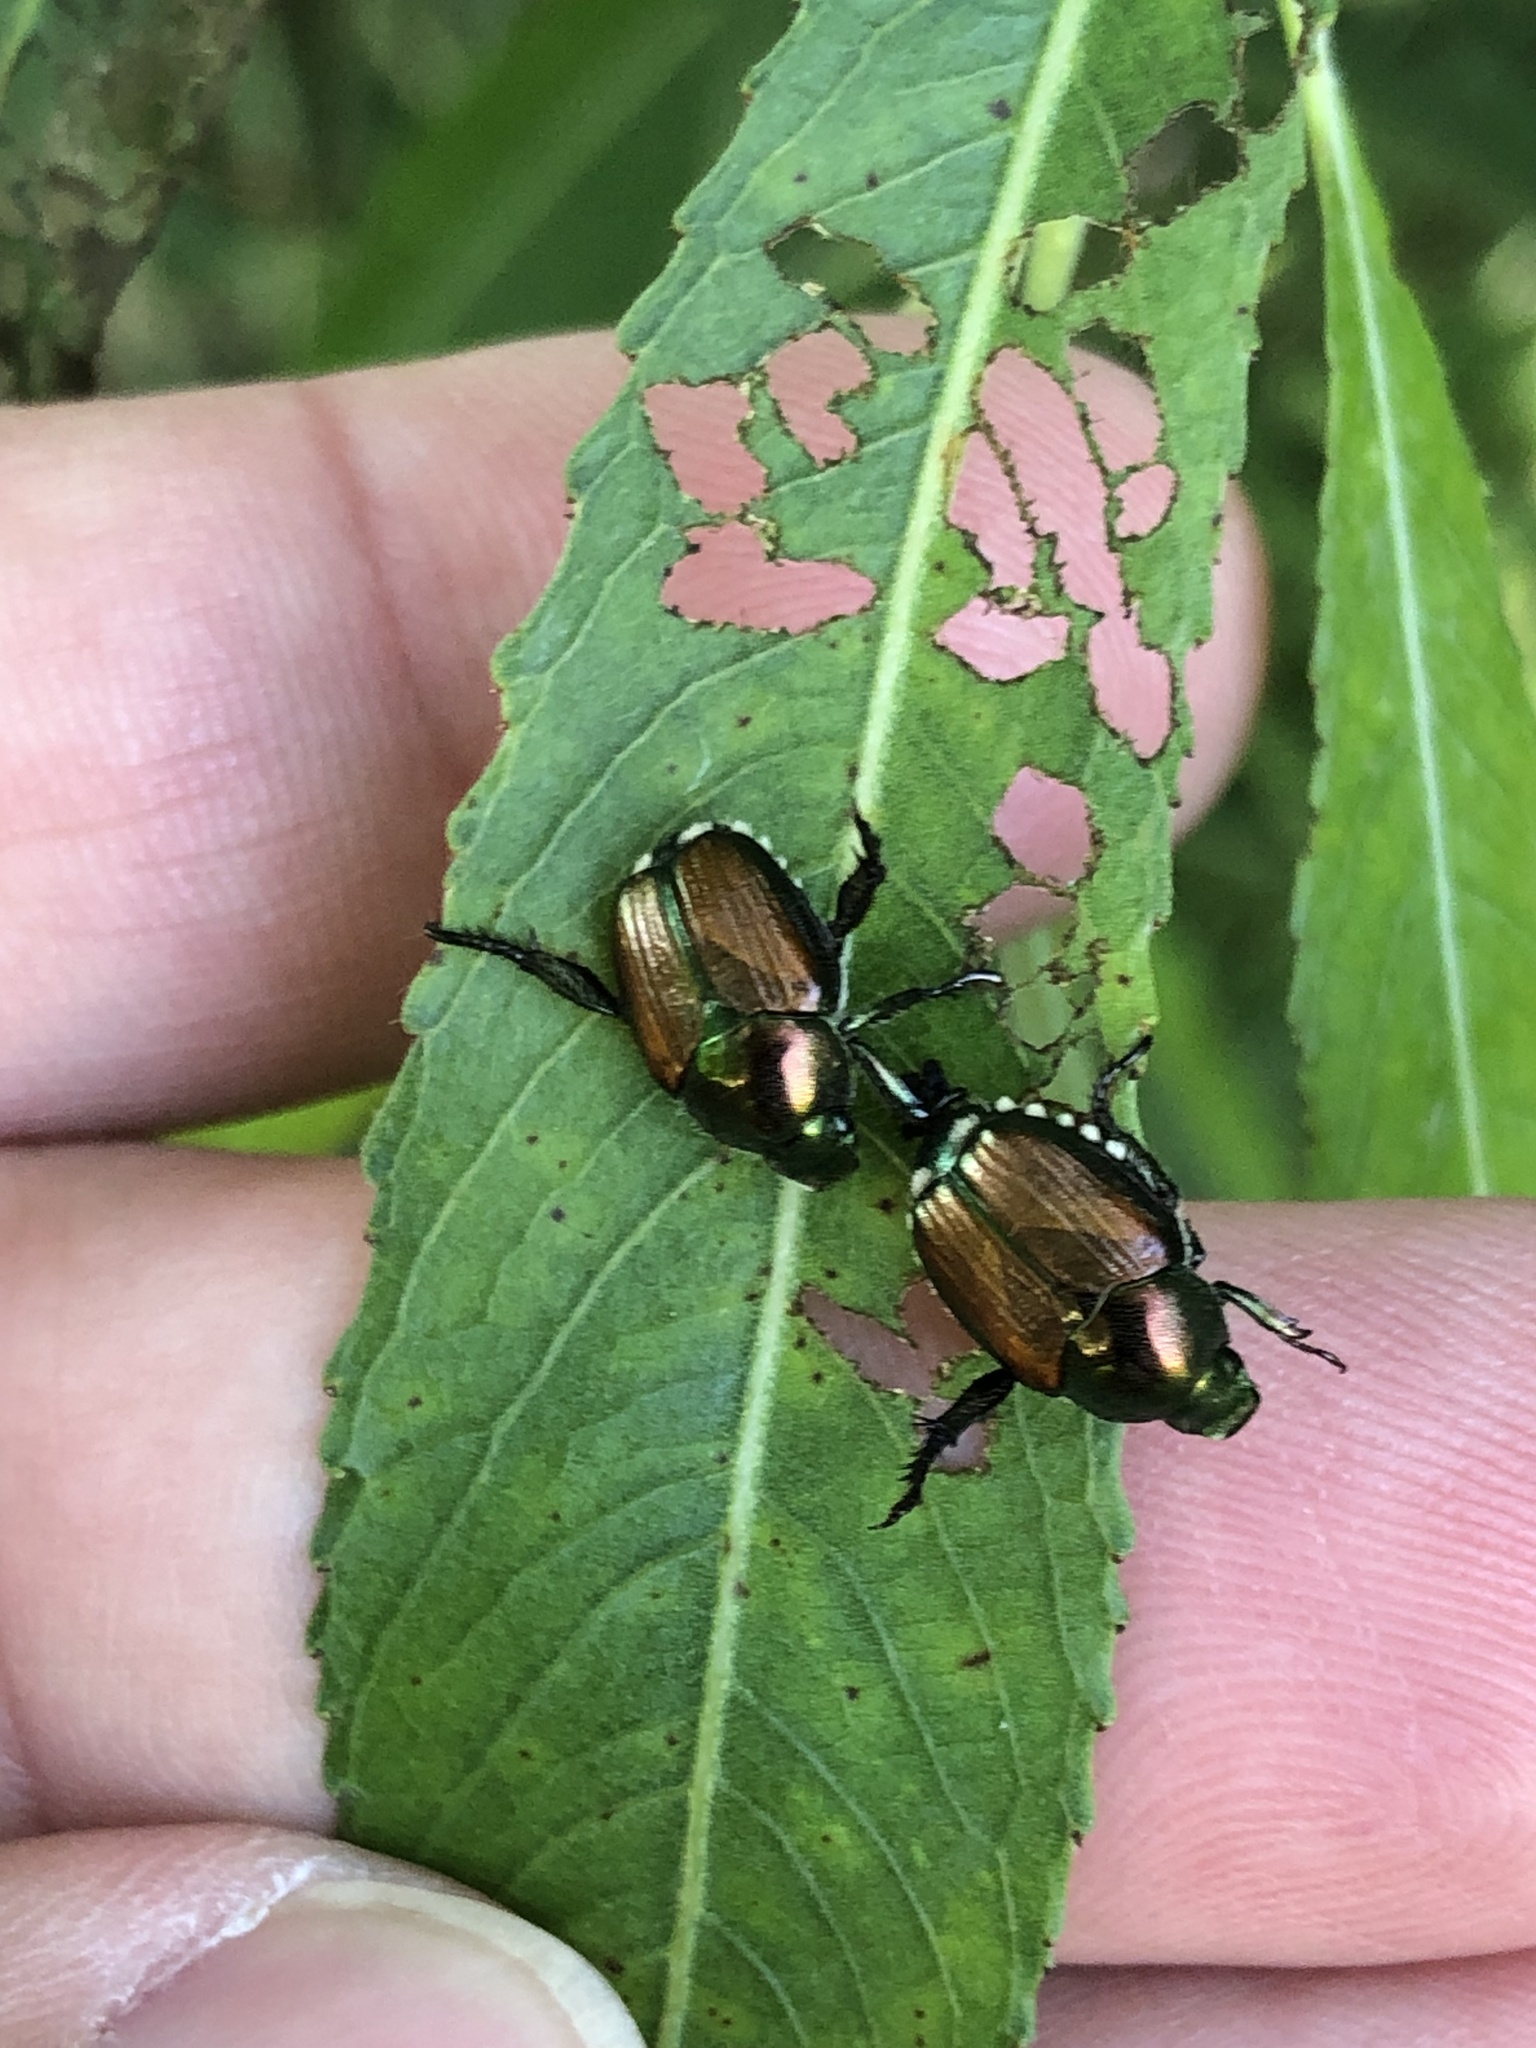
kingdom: Animalia
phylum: Arthropoda
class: Insecta
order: Coleoptera
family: Scarabaeidae
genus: Popillia
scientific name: Popillia japonica
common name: Japanese beetle
